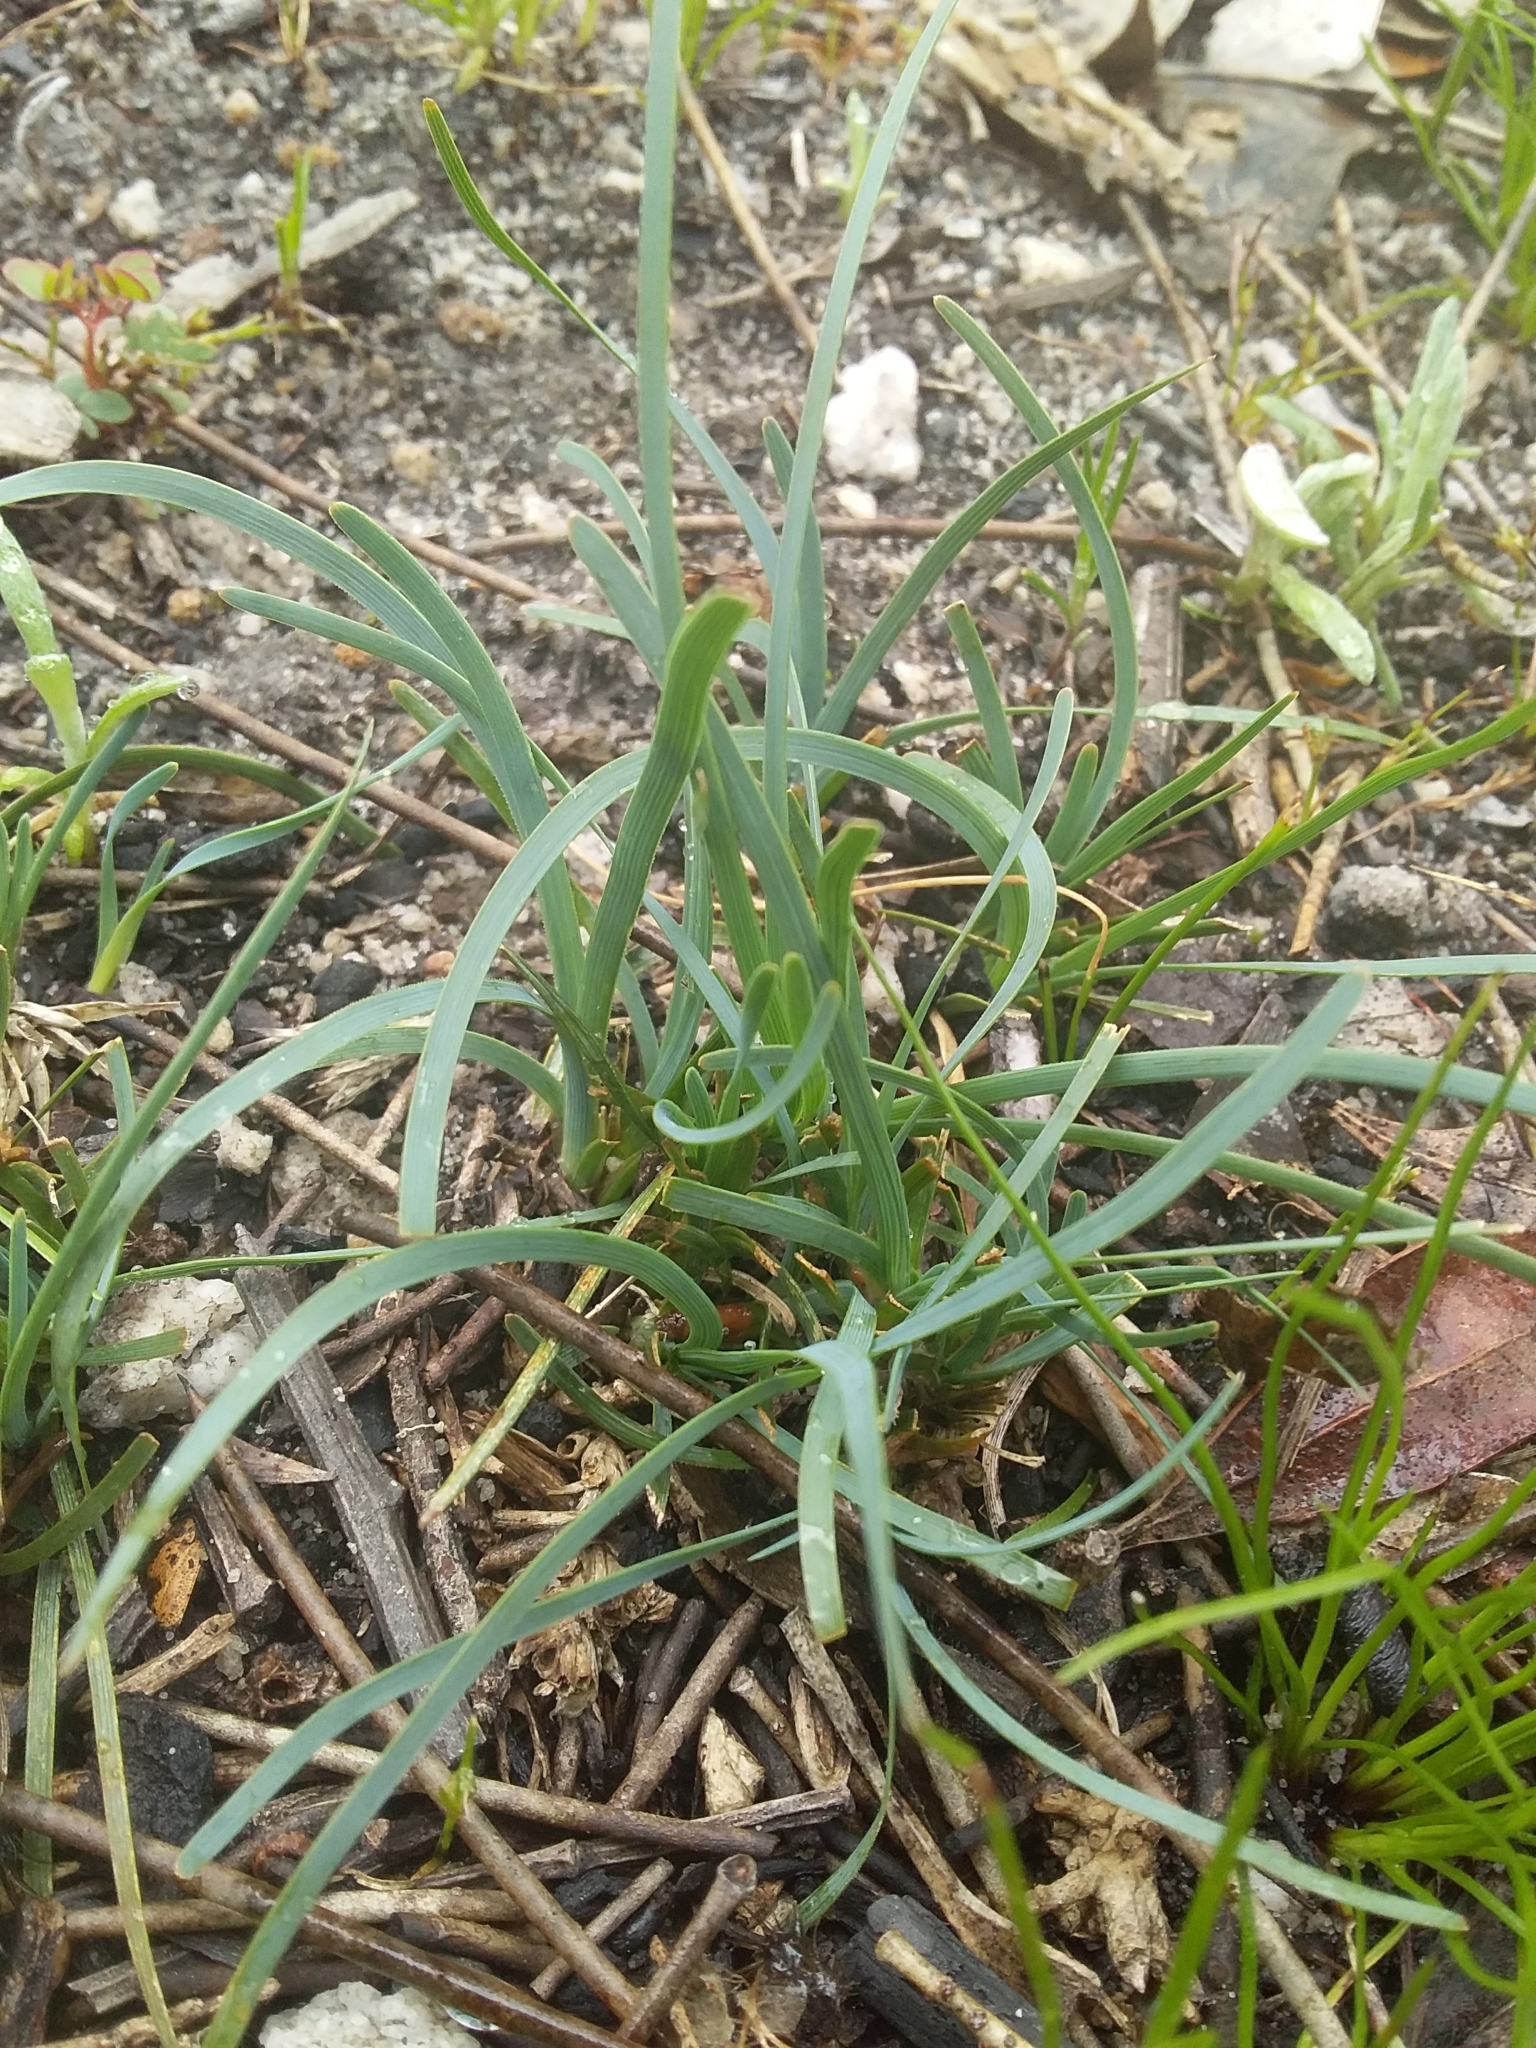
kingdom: Plantae
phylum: Tracheophyta
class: Liliopsida
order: Asparagales
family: Asparagaceae
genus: Lomandra
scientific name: Lomandra nana
